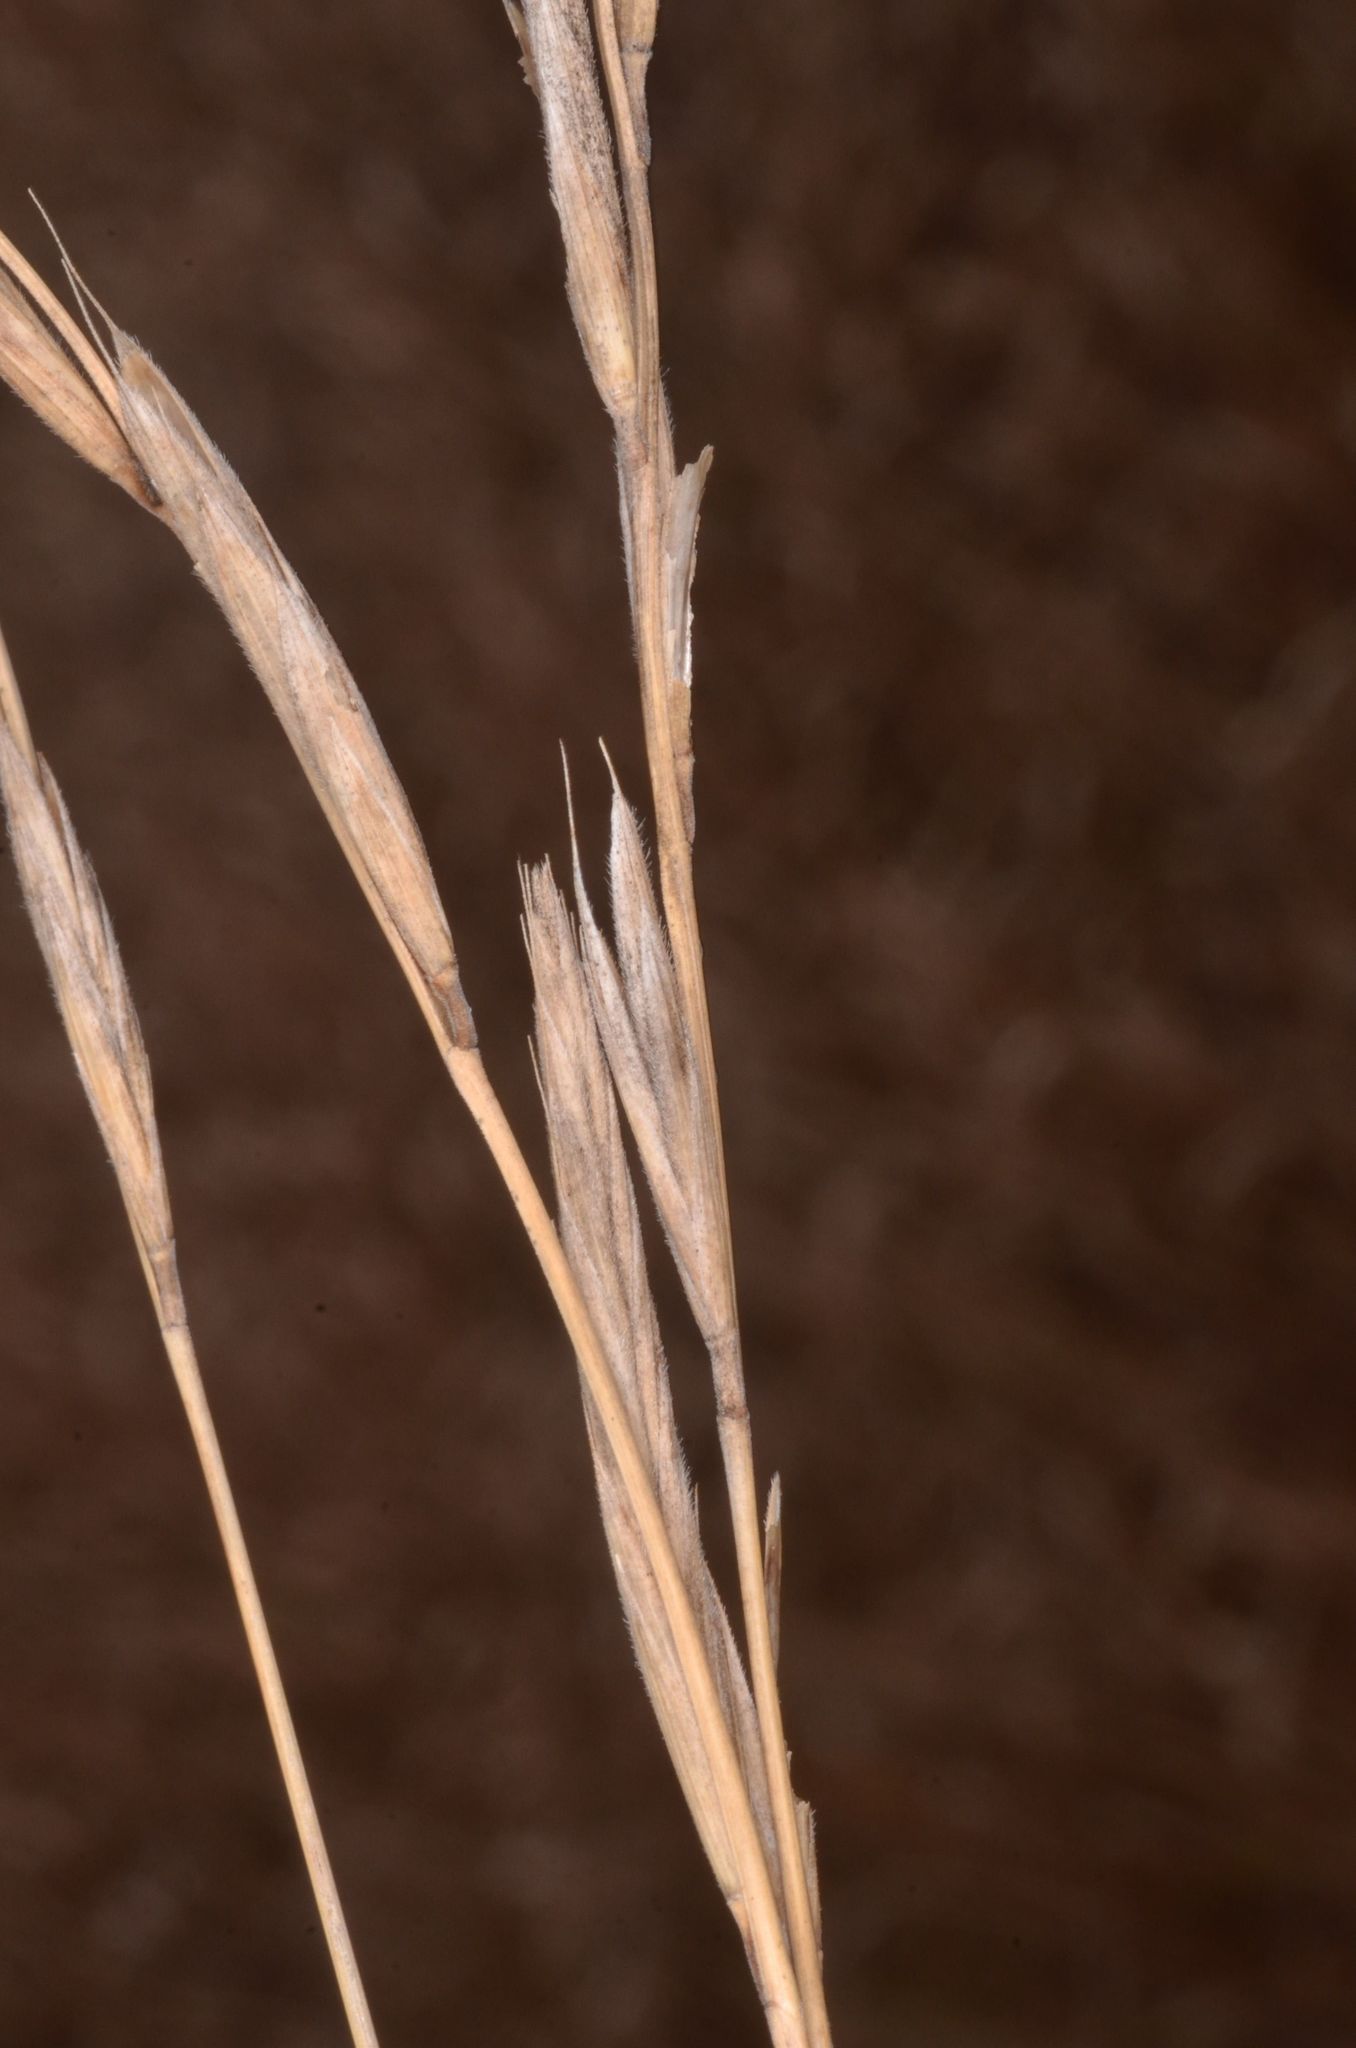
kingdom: Plantae
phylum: Tracheophyta
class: Liliopsida
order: Poales
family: Poaceae
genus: Elymus
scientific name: Elymus repens
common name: Quackgrass
